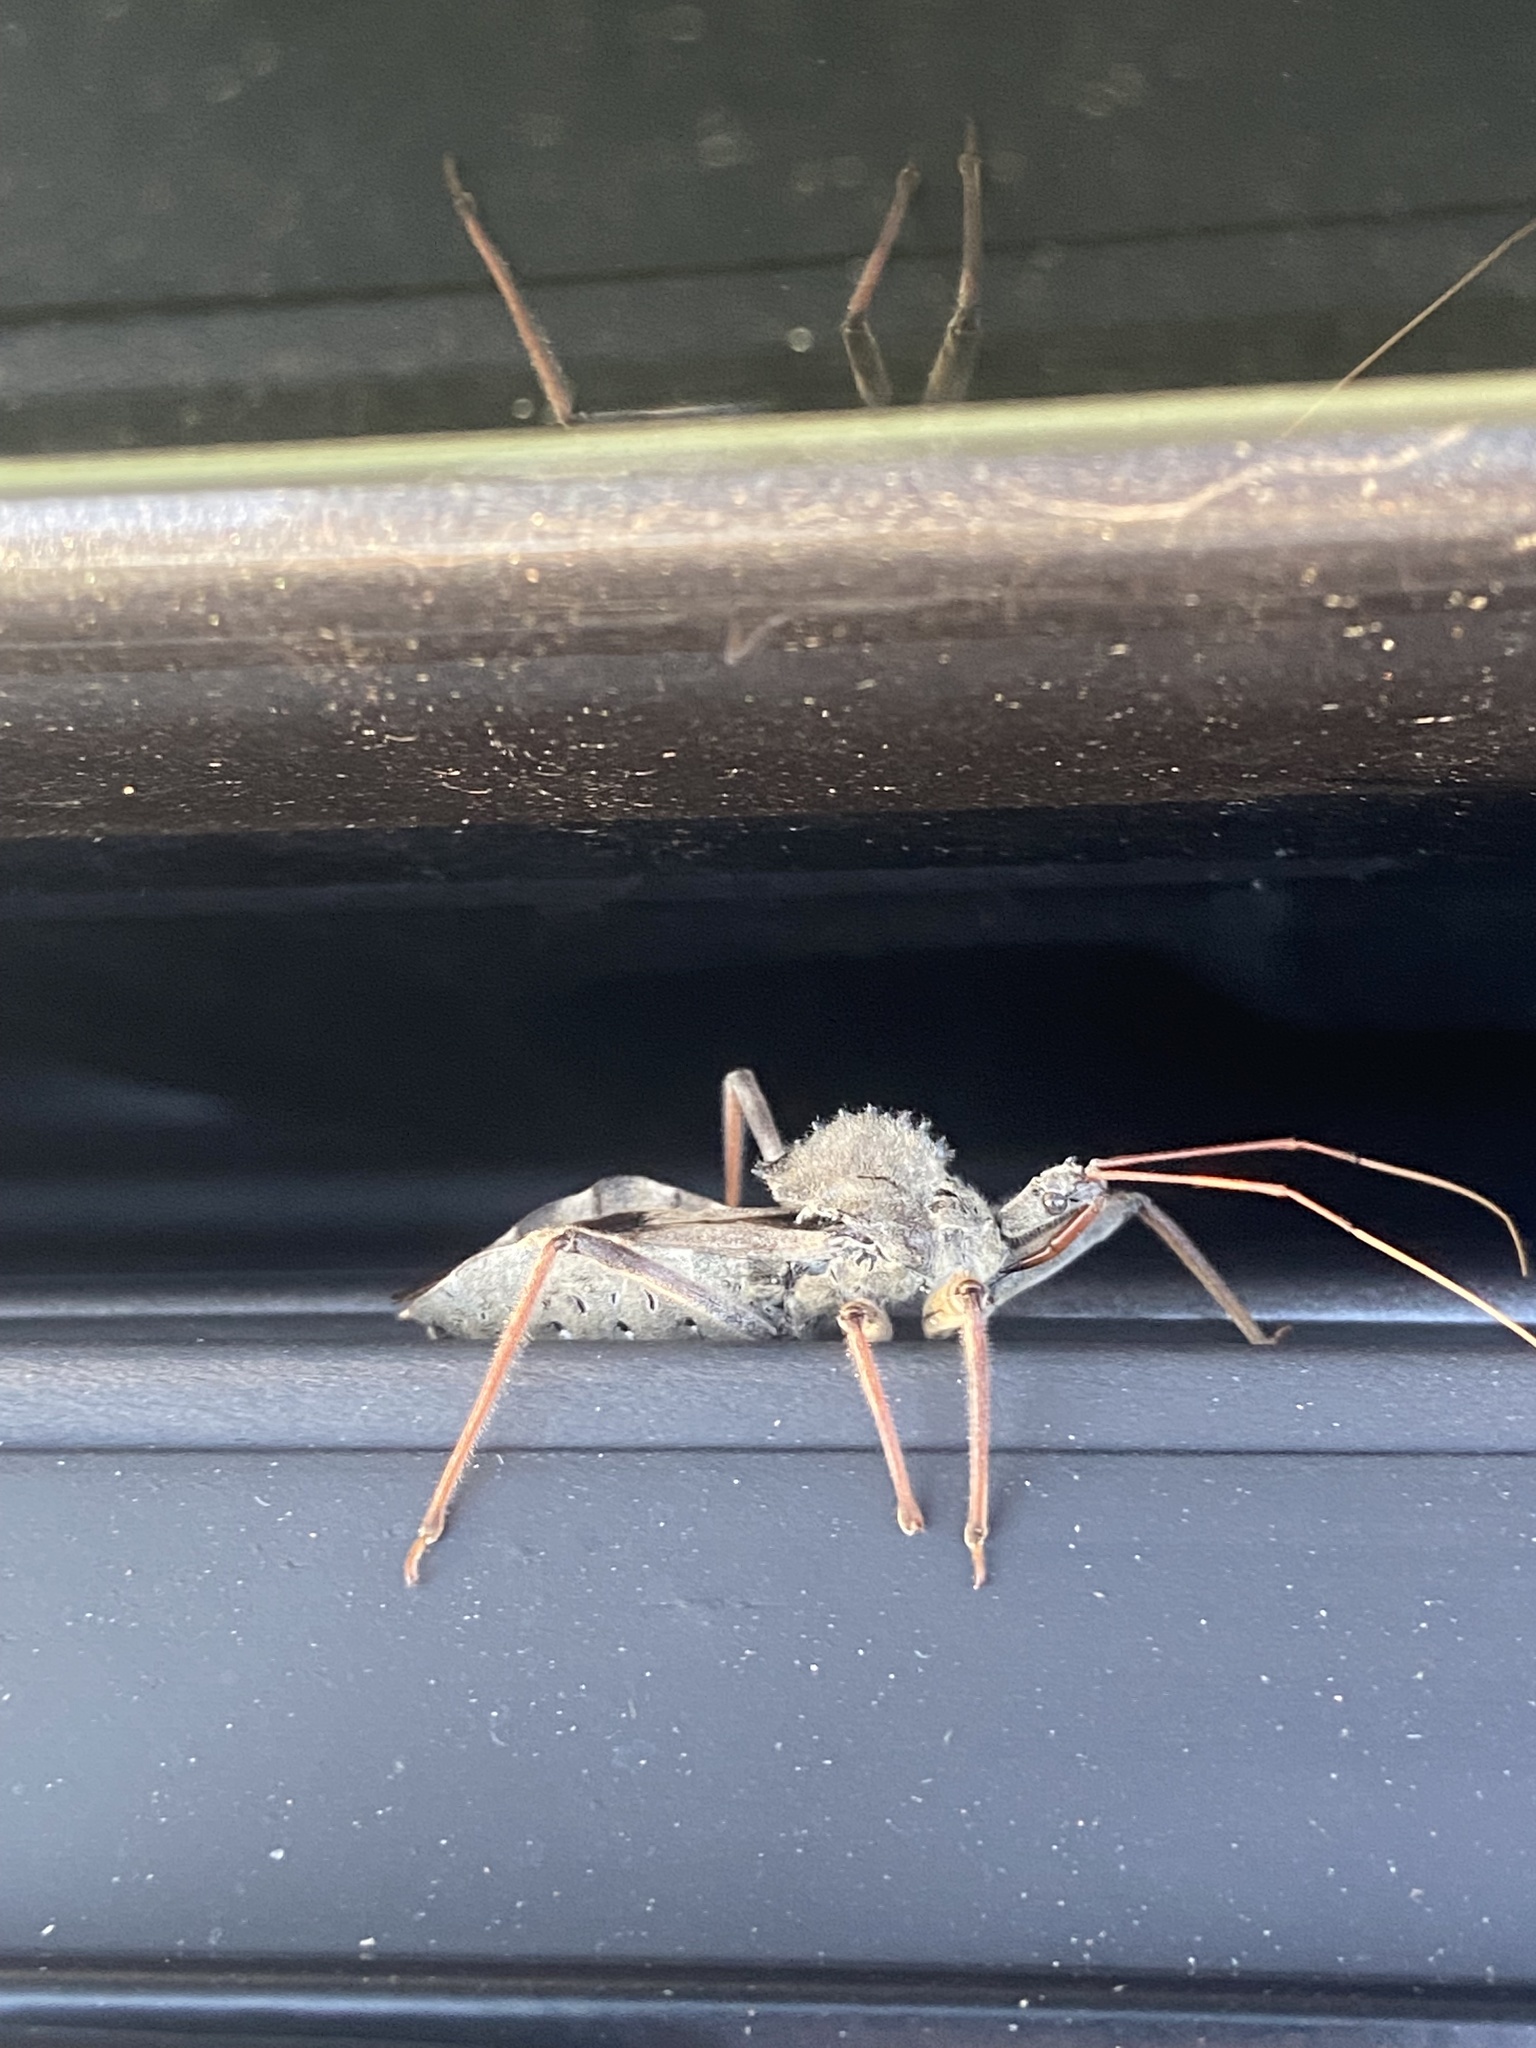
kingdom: Animalia
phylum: Arthropoda
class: Insecta
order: Hemiptera
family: Reduviidae
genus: Arilus
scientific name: Arilus cristatus
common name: North american wheel bug
